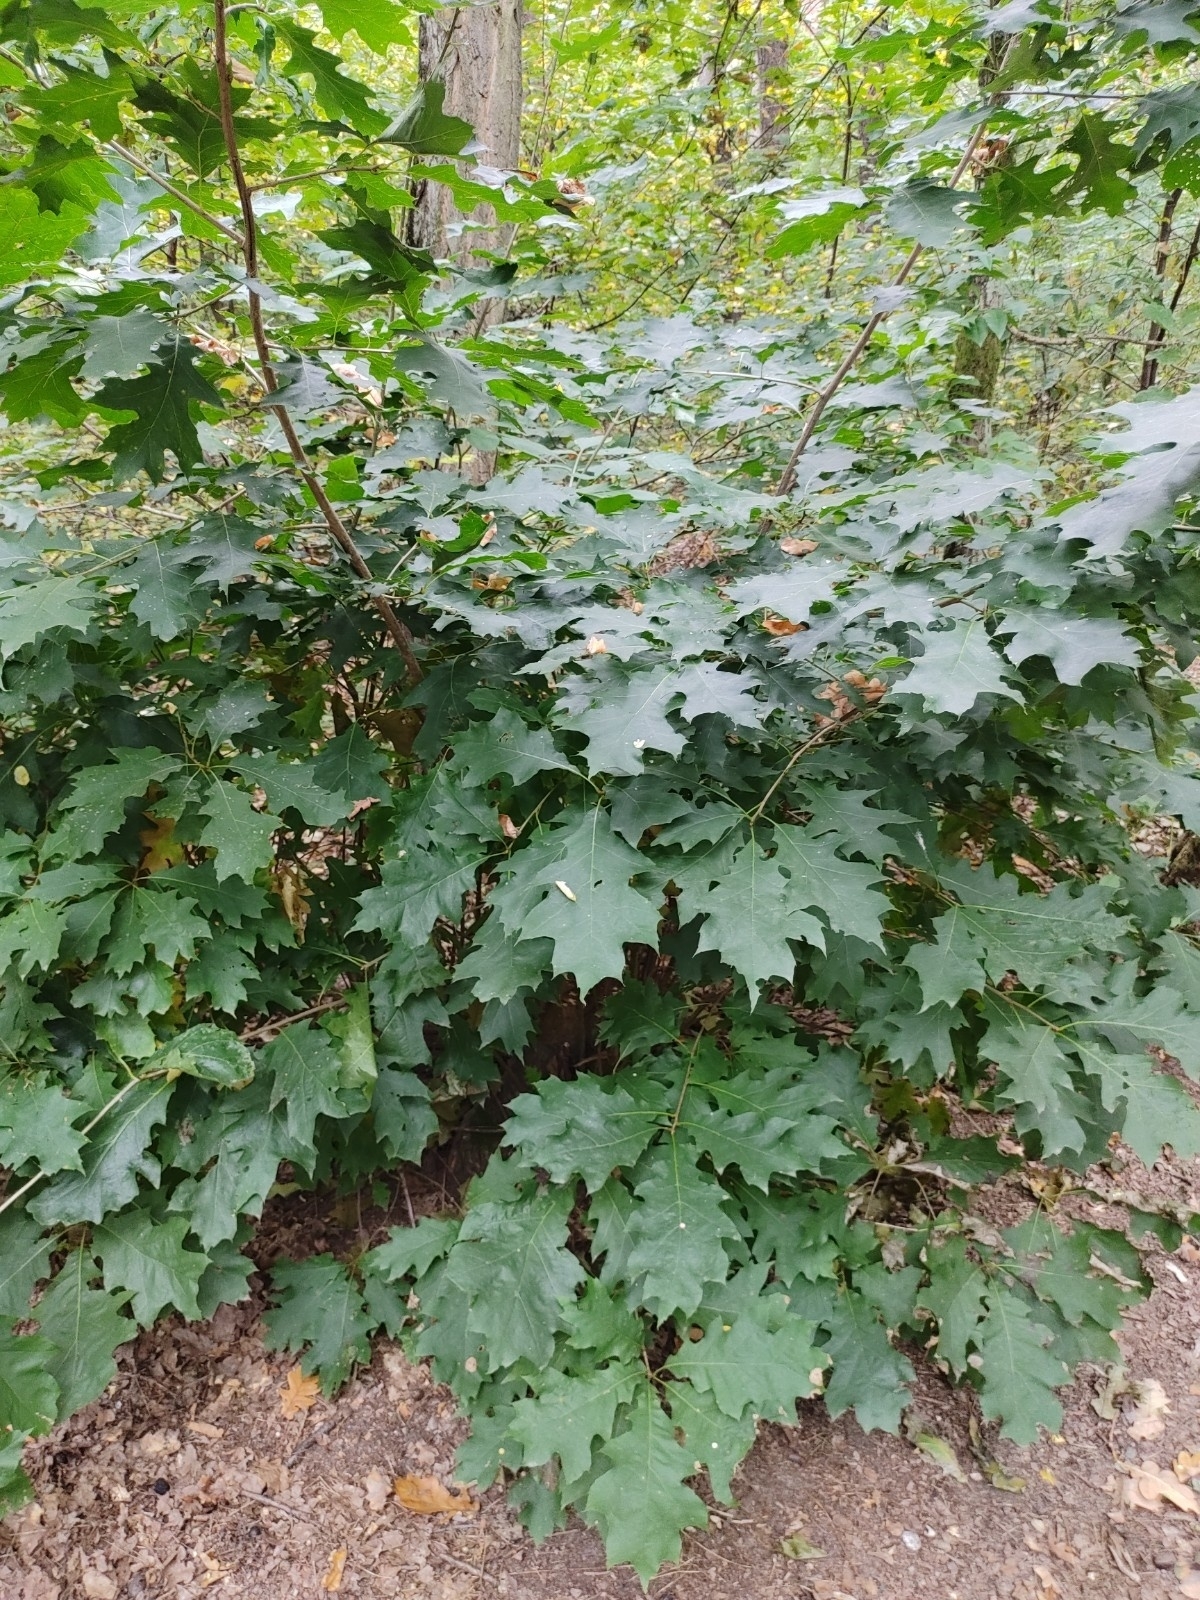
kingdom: Plantae
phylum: Tracheophyta
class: Magnoliopsida
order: Fagales
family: Fagaceae
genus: Quercus
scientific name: Quercus rubra
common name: Red oak
